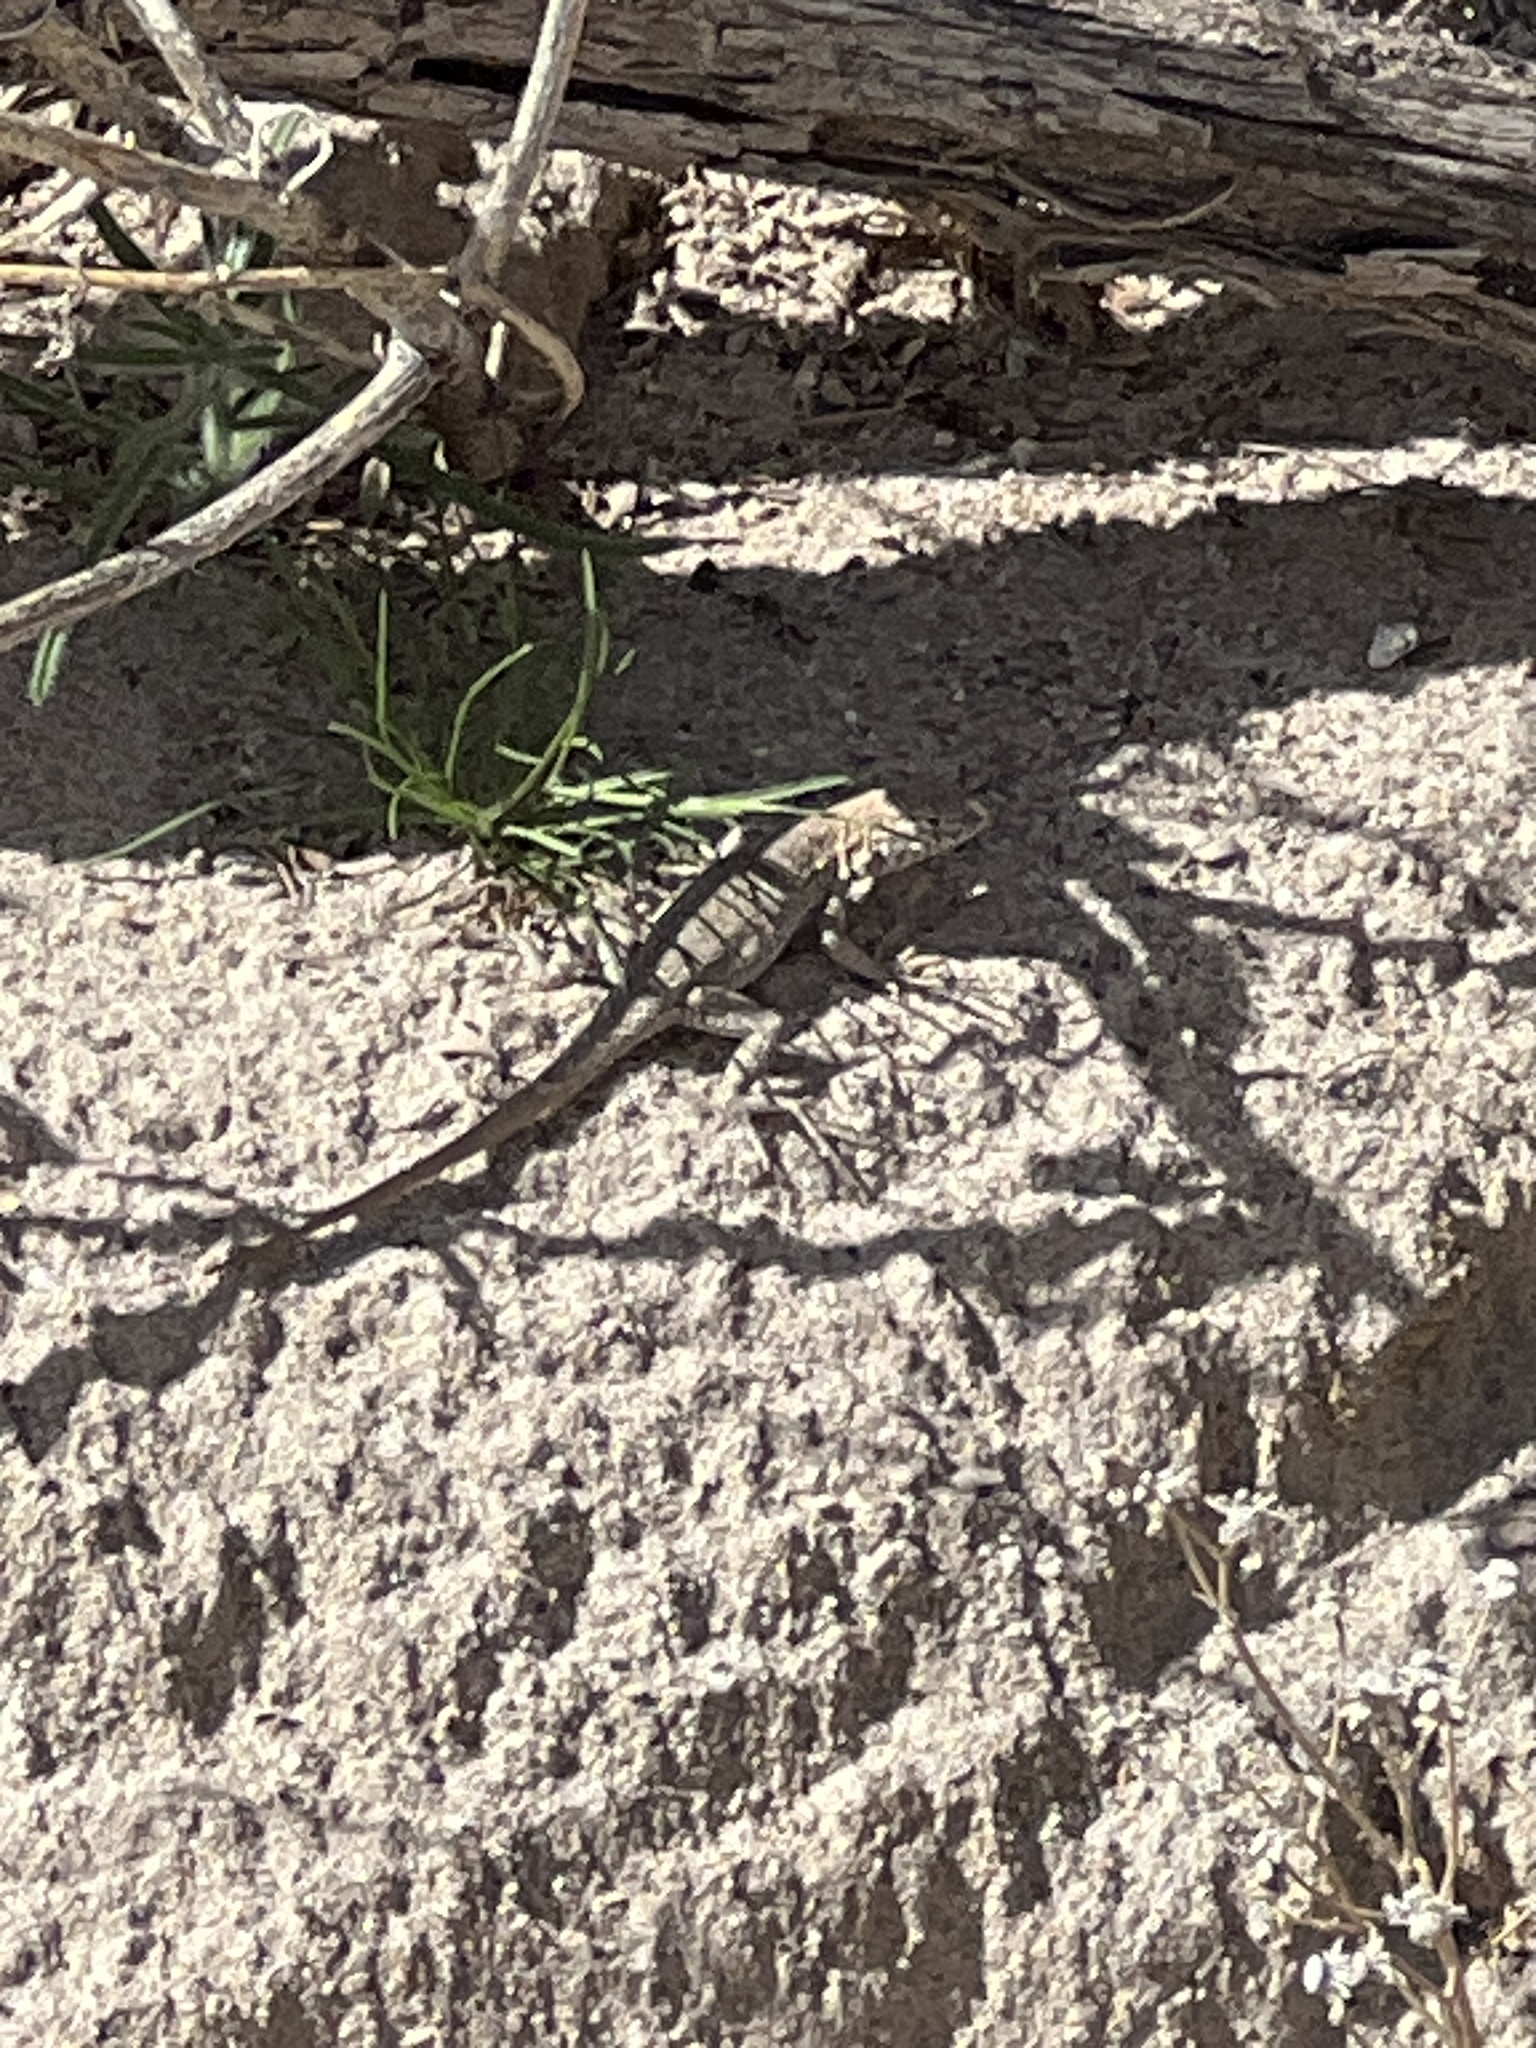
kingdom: Animalia
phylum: Chordata
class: Squamata
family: Phrynosomatidae
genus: Uta
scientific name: Uta stansburiana
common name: Side-blotched lizard
